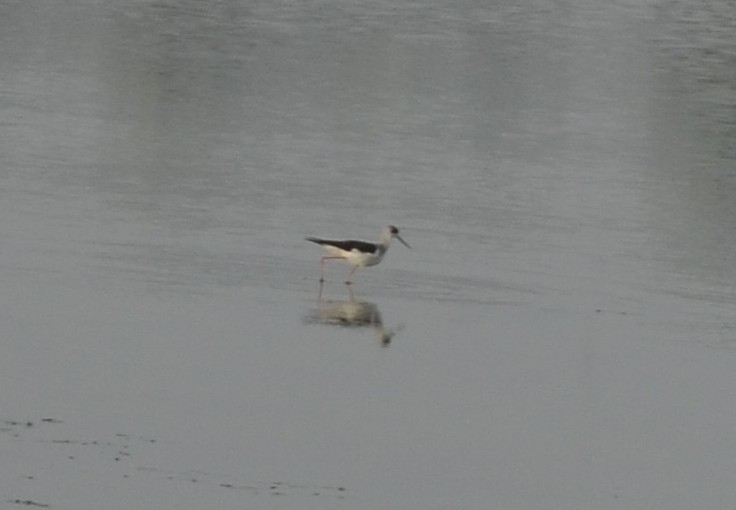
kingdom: Animalia
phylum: Chordata
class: Aves
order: Charadriiformes
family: Recurvirostridae
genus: Himantopus
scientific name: Himantopus himantopus
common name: Black-winged stilt
